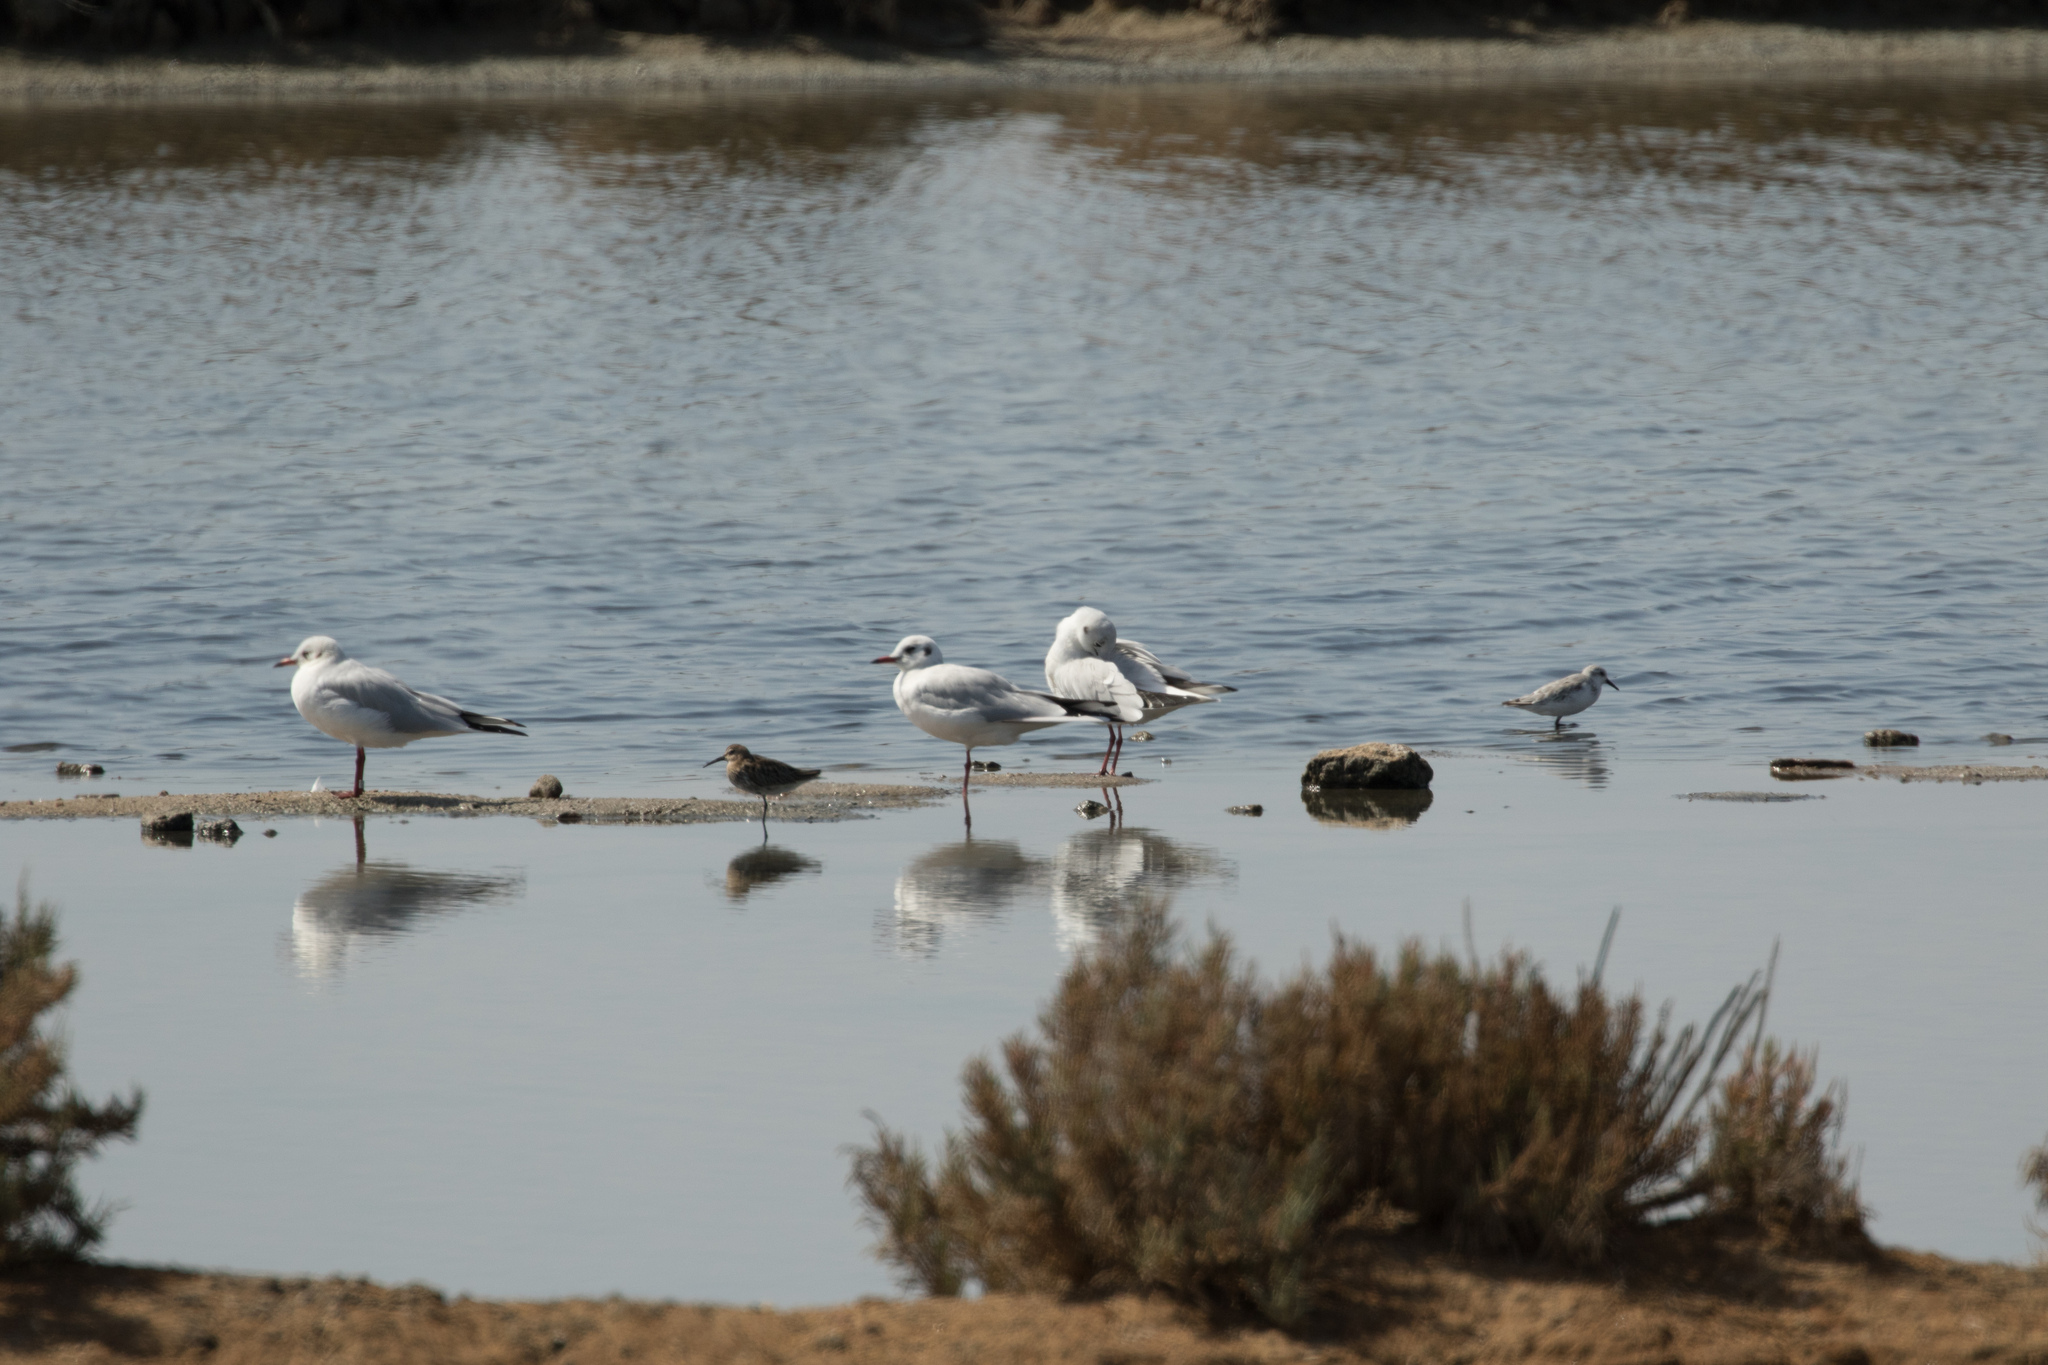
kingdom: Animalia
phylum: Chordata
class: Aves
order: Charadriiformes
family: Scolopacidae
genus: Calidris
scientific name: Calidris alpina
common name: Dunlin
